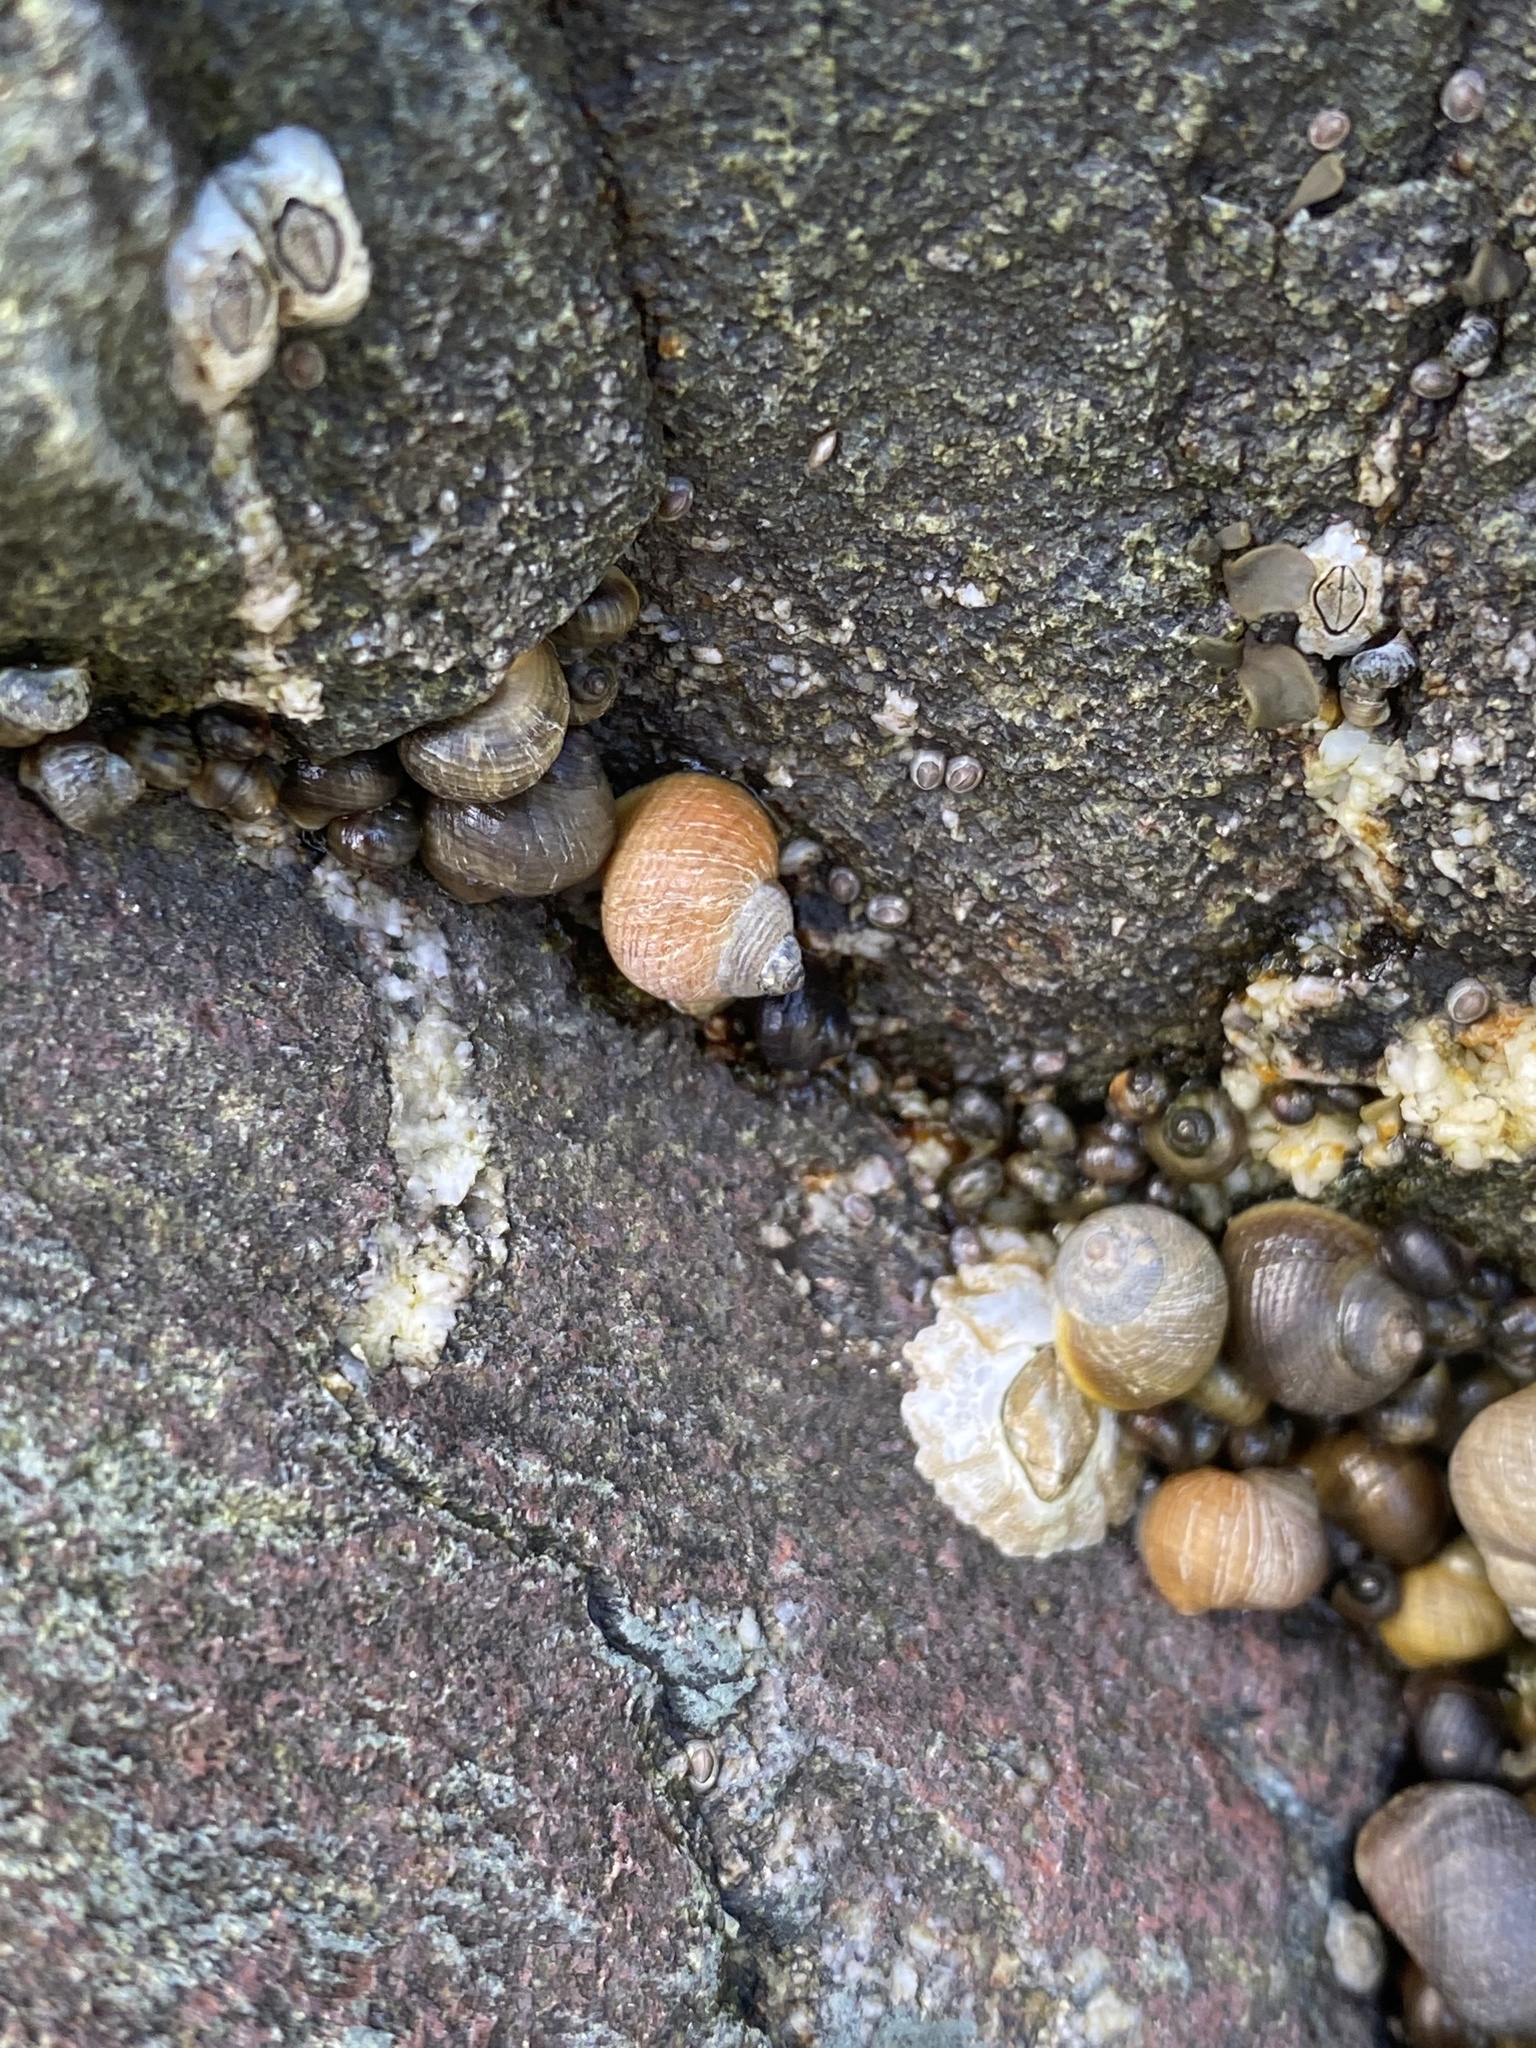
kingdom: Animalia
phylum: Mollusca
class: Gastropoda
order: Littorinimorpha
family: Littorinidae
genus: Littorina
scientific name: Littorina saxatilis
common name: Black-lined periwinkle
